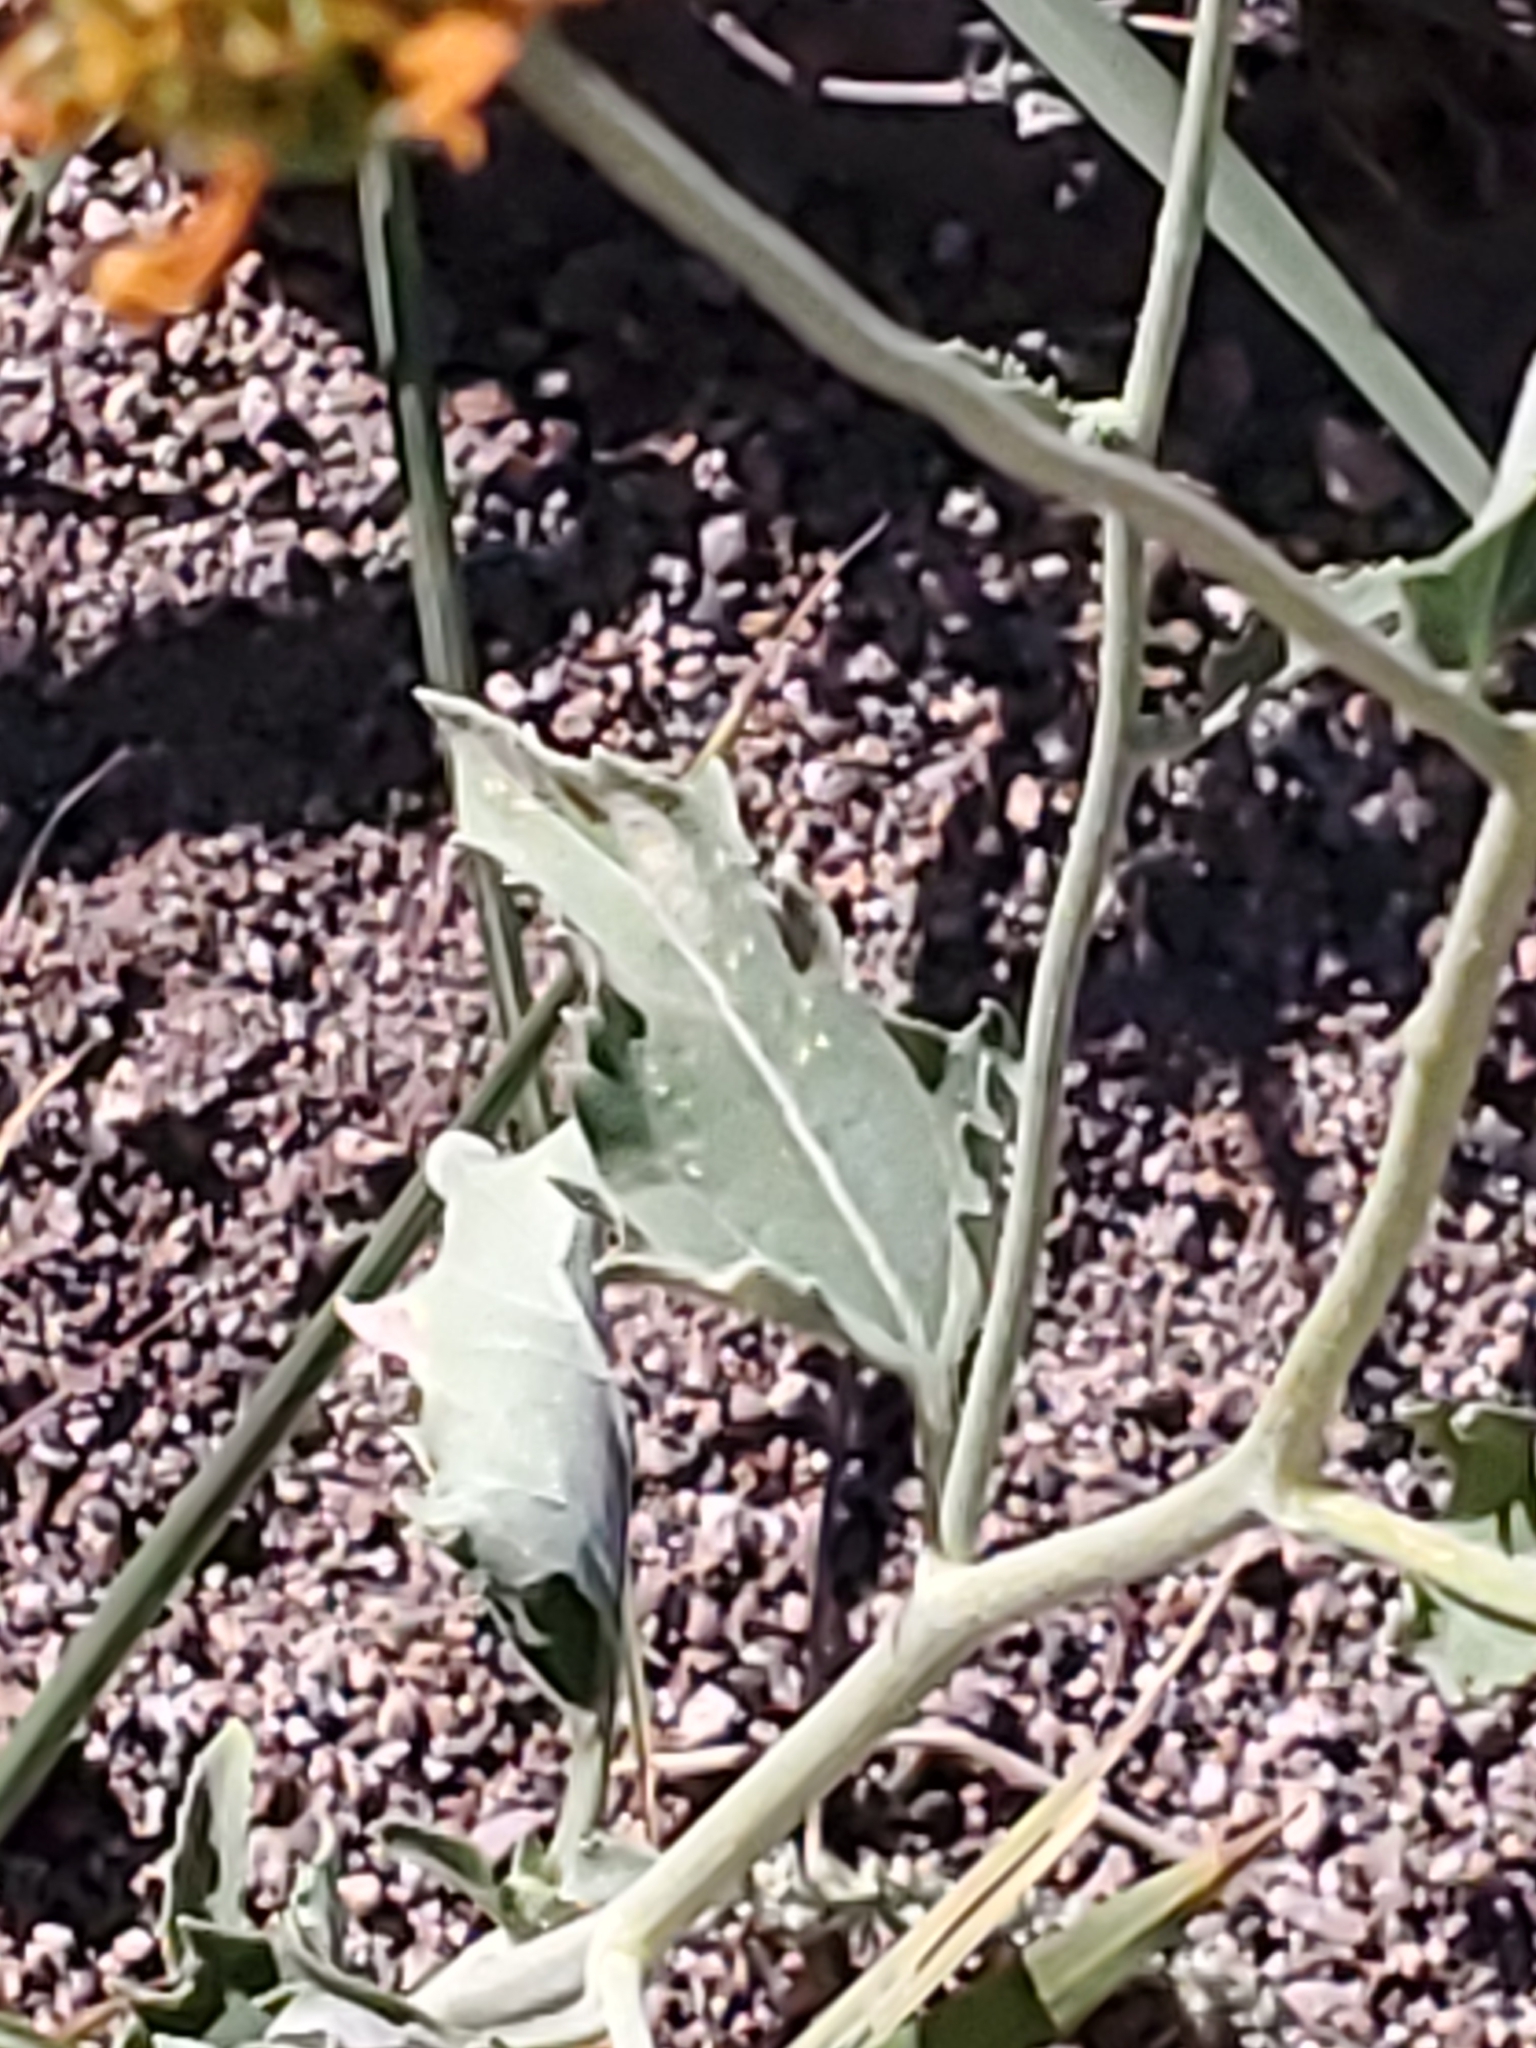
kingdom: Plantae
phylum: Tracheophyta
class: Magnoliopsida
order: Asterales
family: Asteraceae
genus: Verbesina
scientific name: Verbesina encelioides
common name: Golden crownbeard
